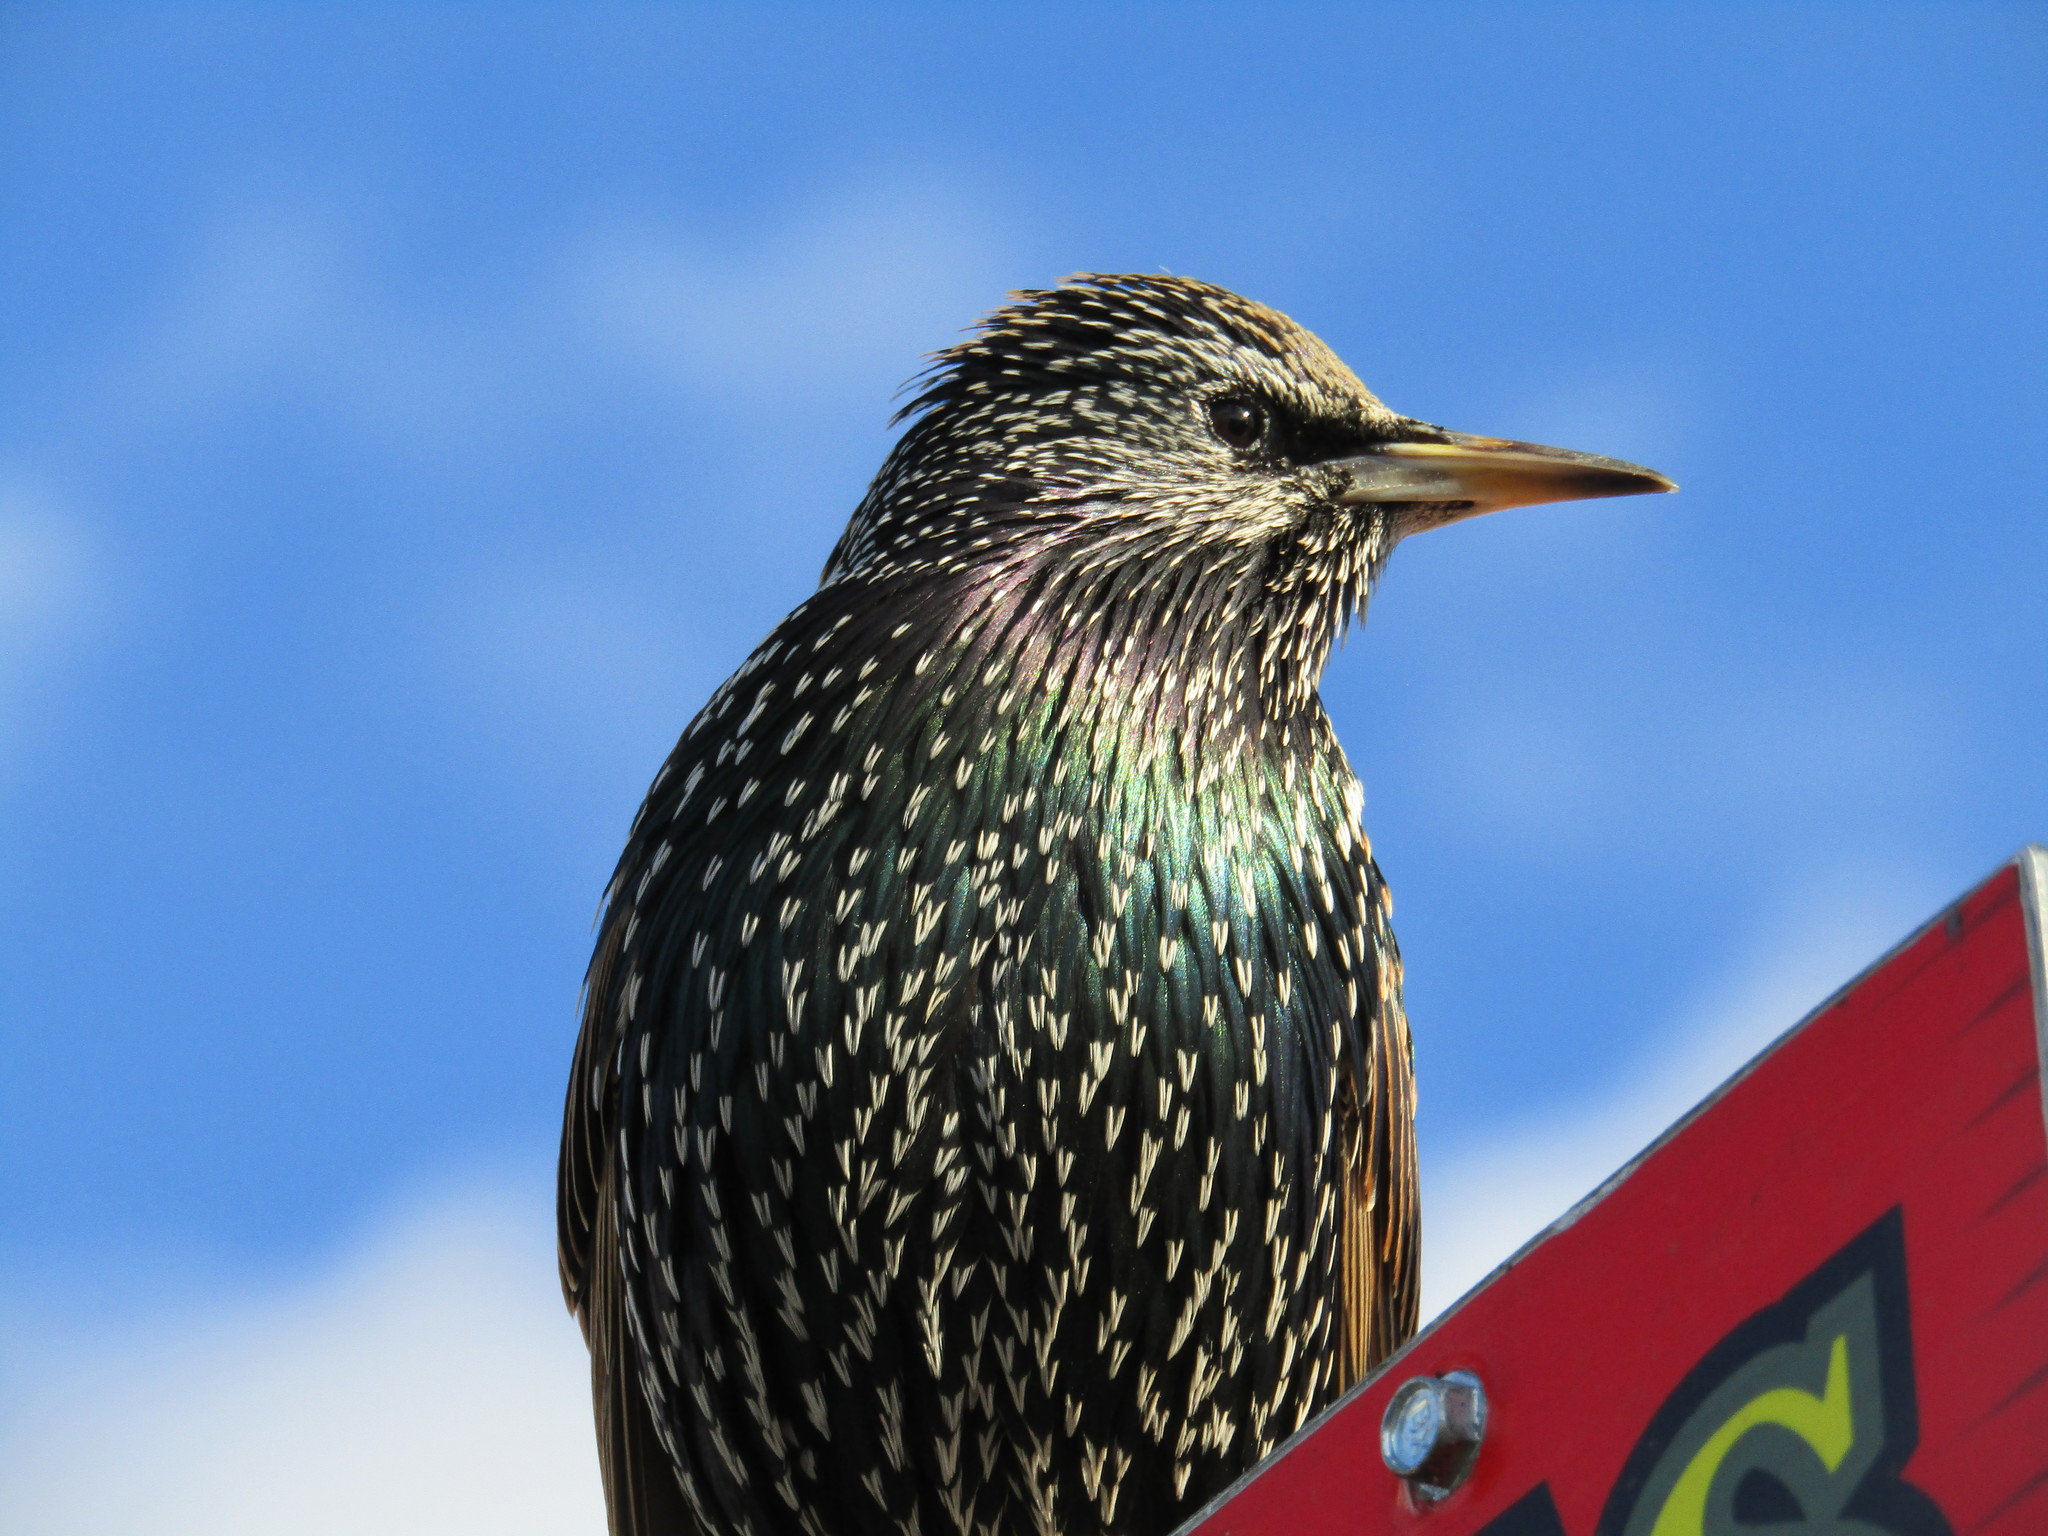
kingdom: Animalia
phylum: Chordata
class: Aves
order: Passeriformes
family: Sturnidae
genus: Sturnus
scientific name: Sturnus vulgaris
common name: Common starling
